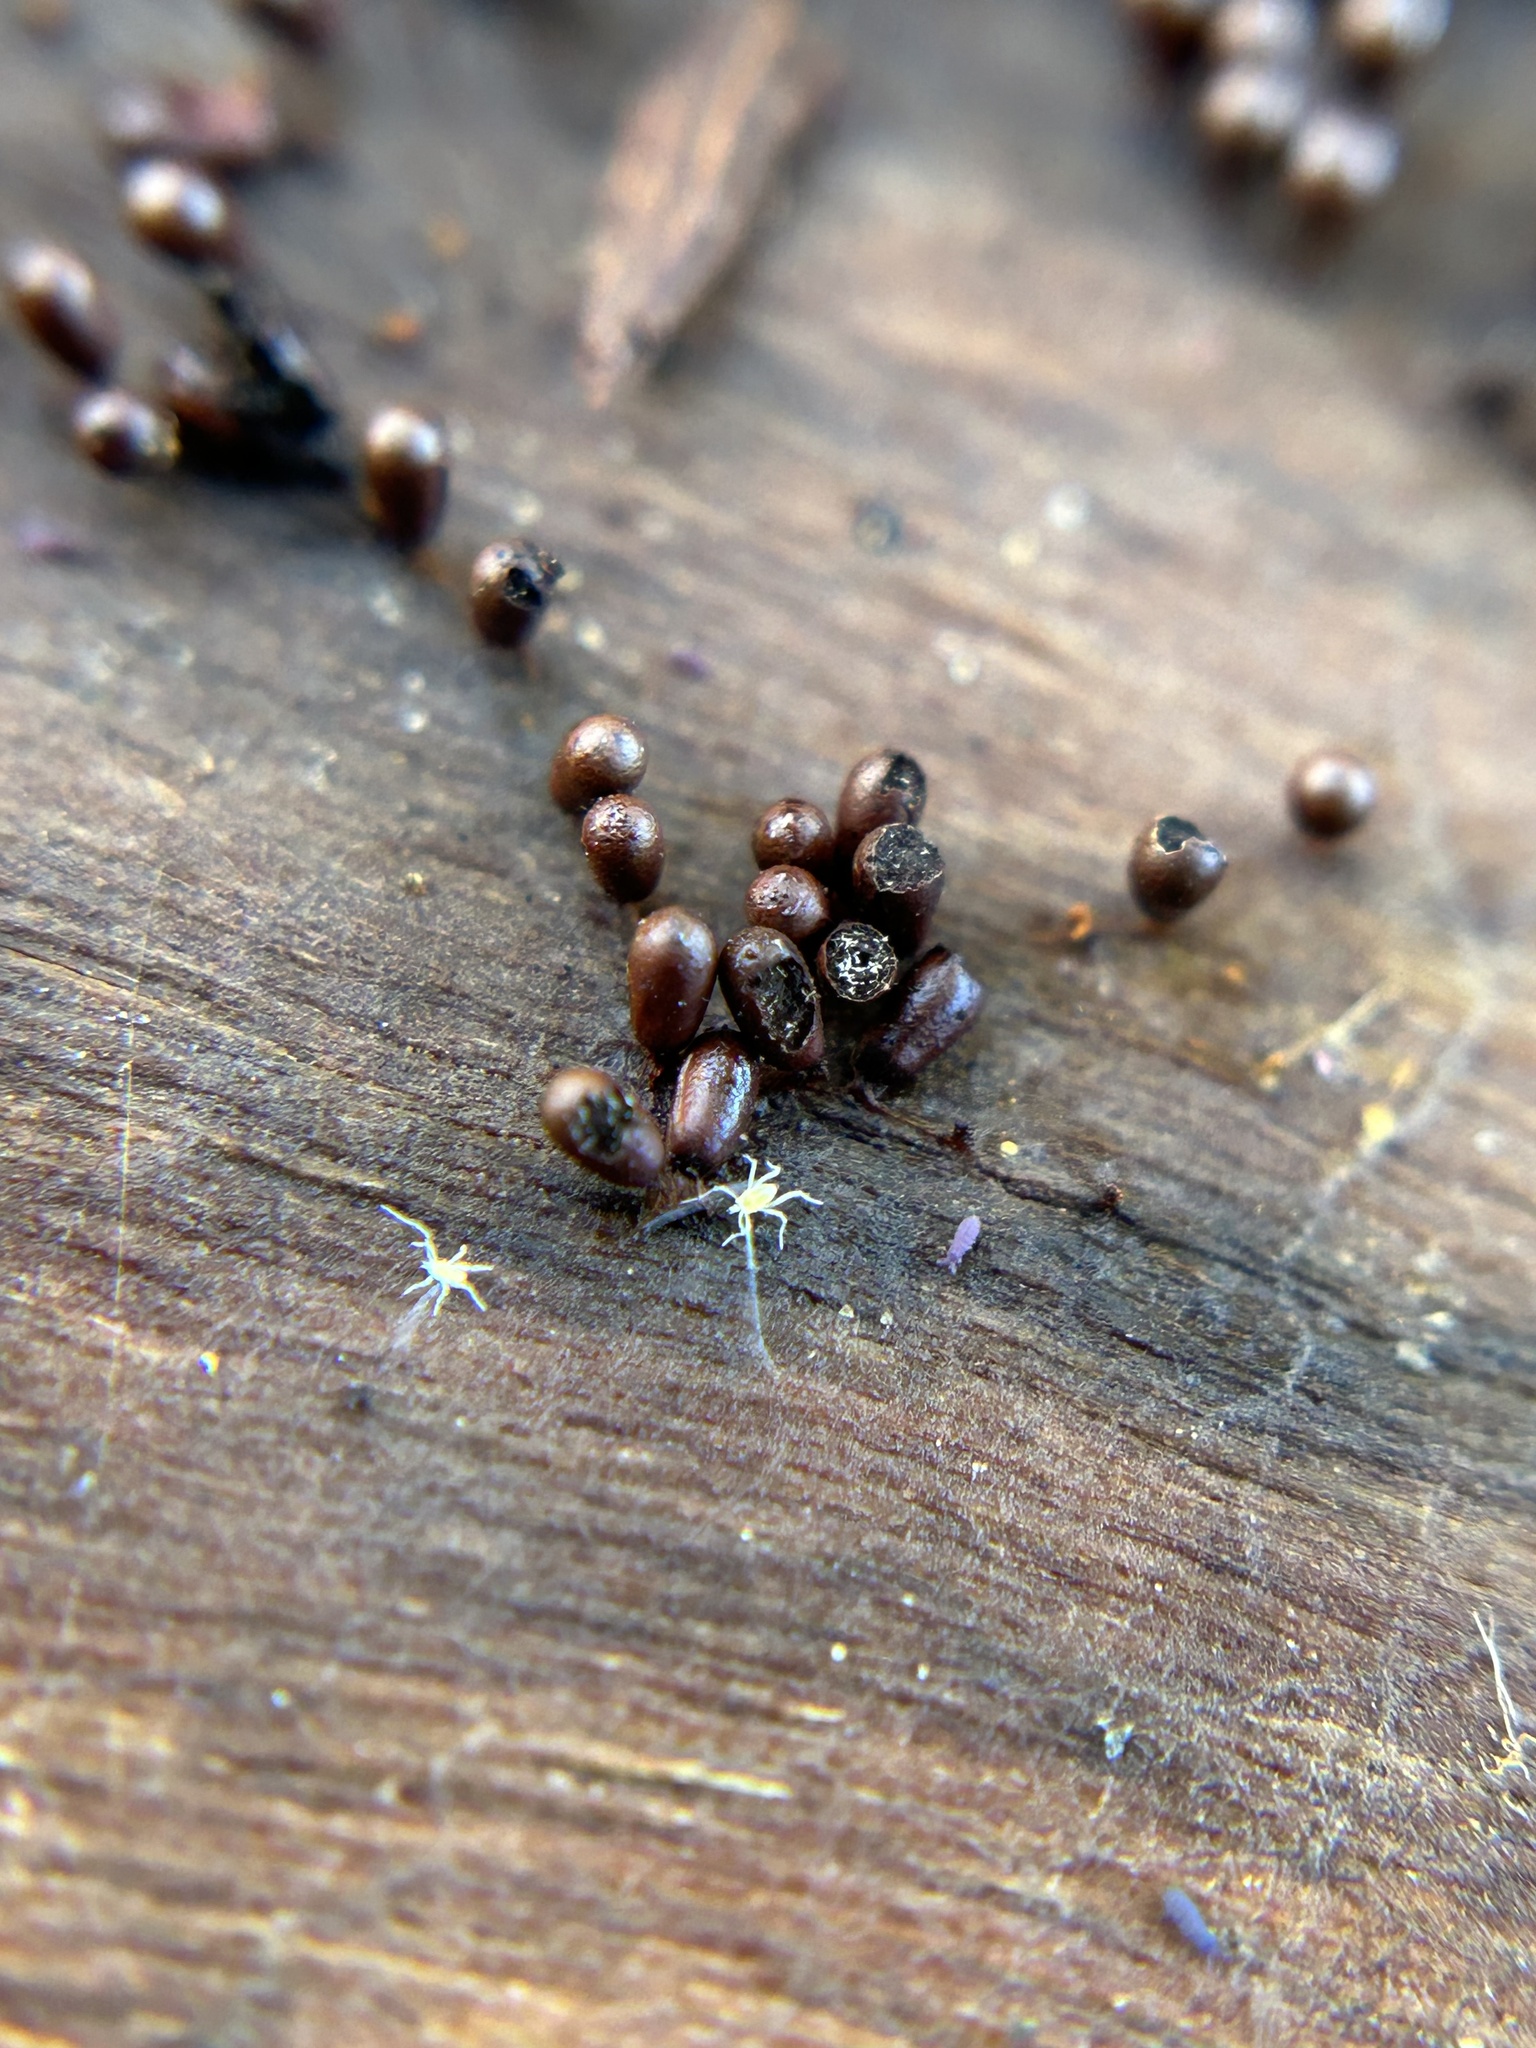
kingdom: Protozoa
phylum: Mycetozoa
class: Myxomycetes
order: Physarales
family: Physaraceae
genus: Leocarpus
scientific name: Leocarpus fragilis
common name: Insect-egg slime
